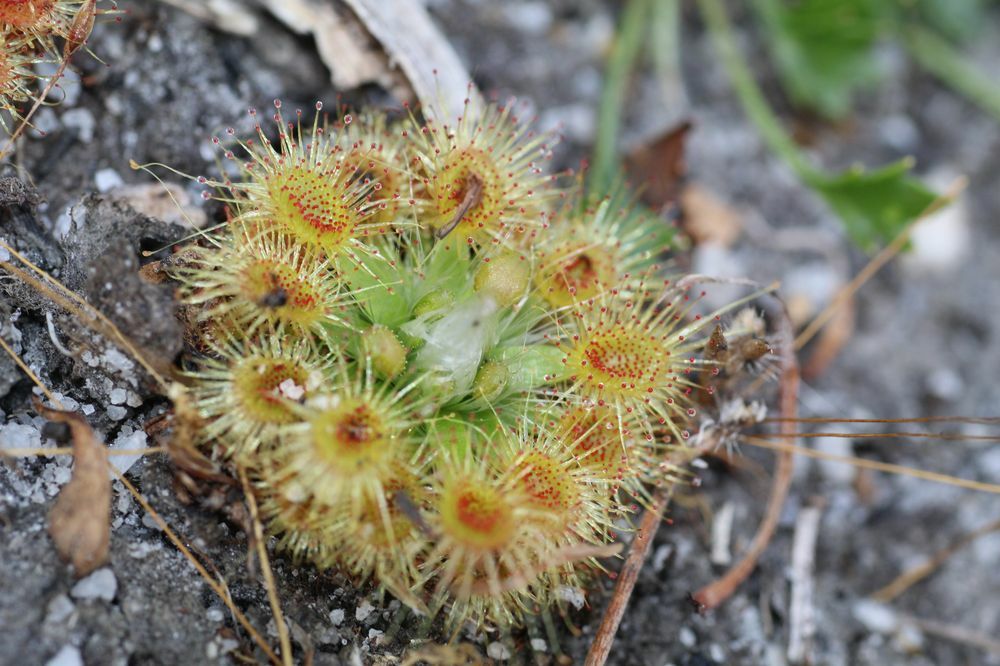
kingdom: Plantae
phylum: Tracheophyta
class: Magnoliopsida
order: Caryophyllales
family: Droseraceae
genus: Drosera
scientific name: Drosera pulchella
